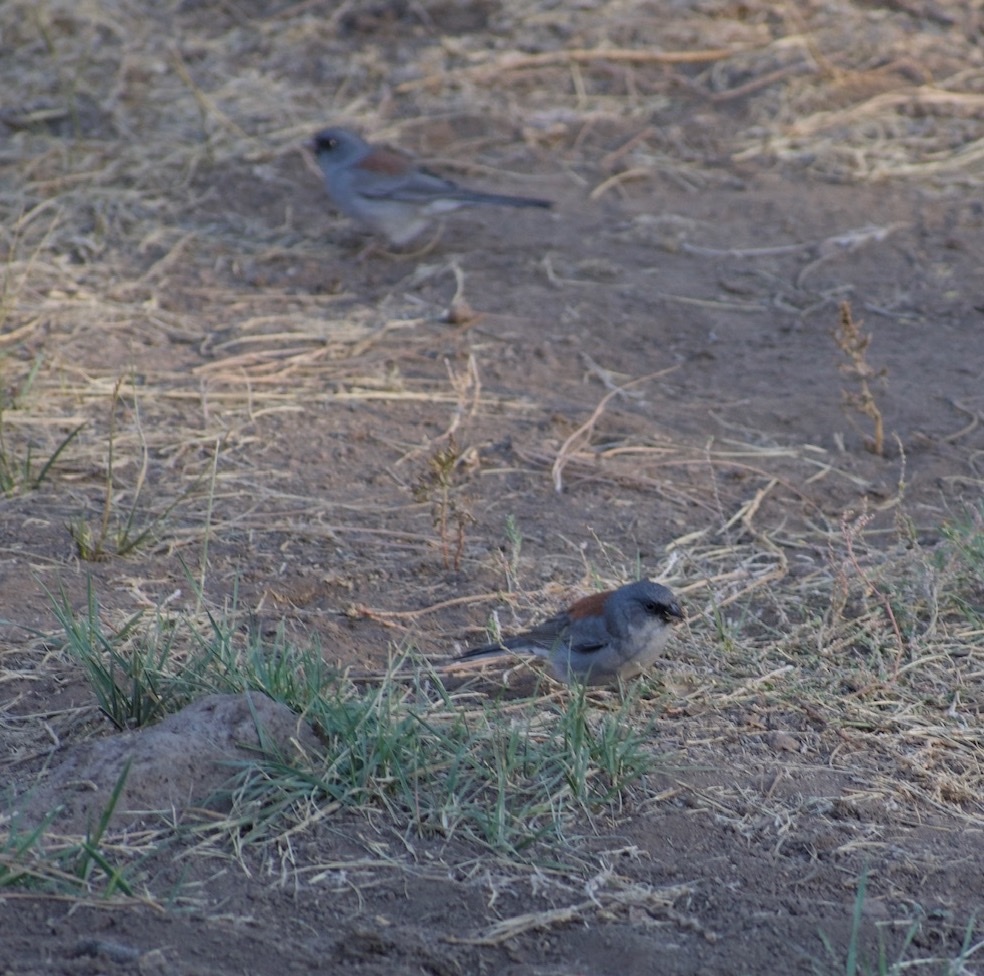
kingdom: Animalia
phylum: Chordata
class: Aves
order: Passeriformes
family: Passerellidae
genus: Junco
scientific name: Junco hyemalis
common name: Dark-eyed junco
